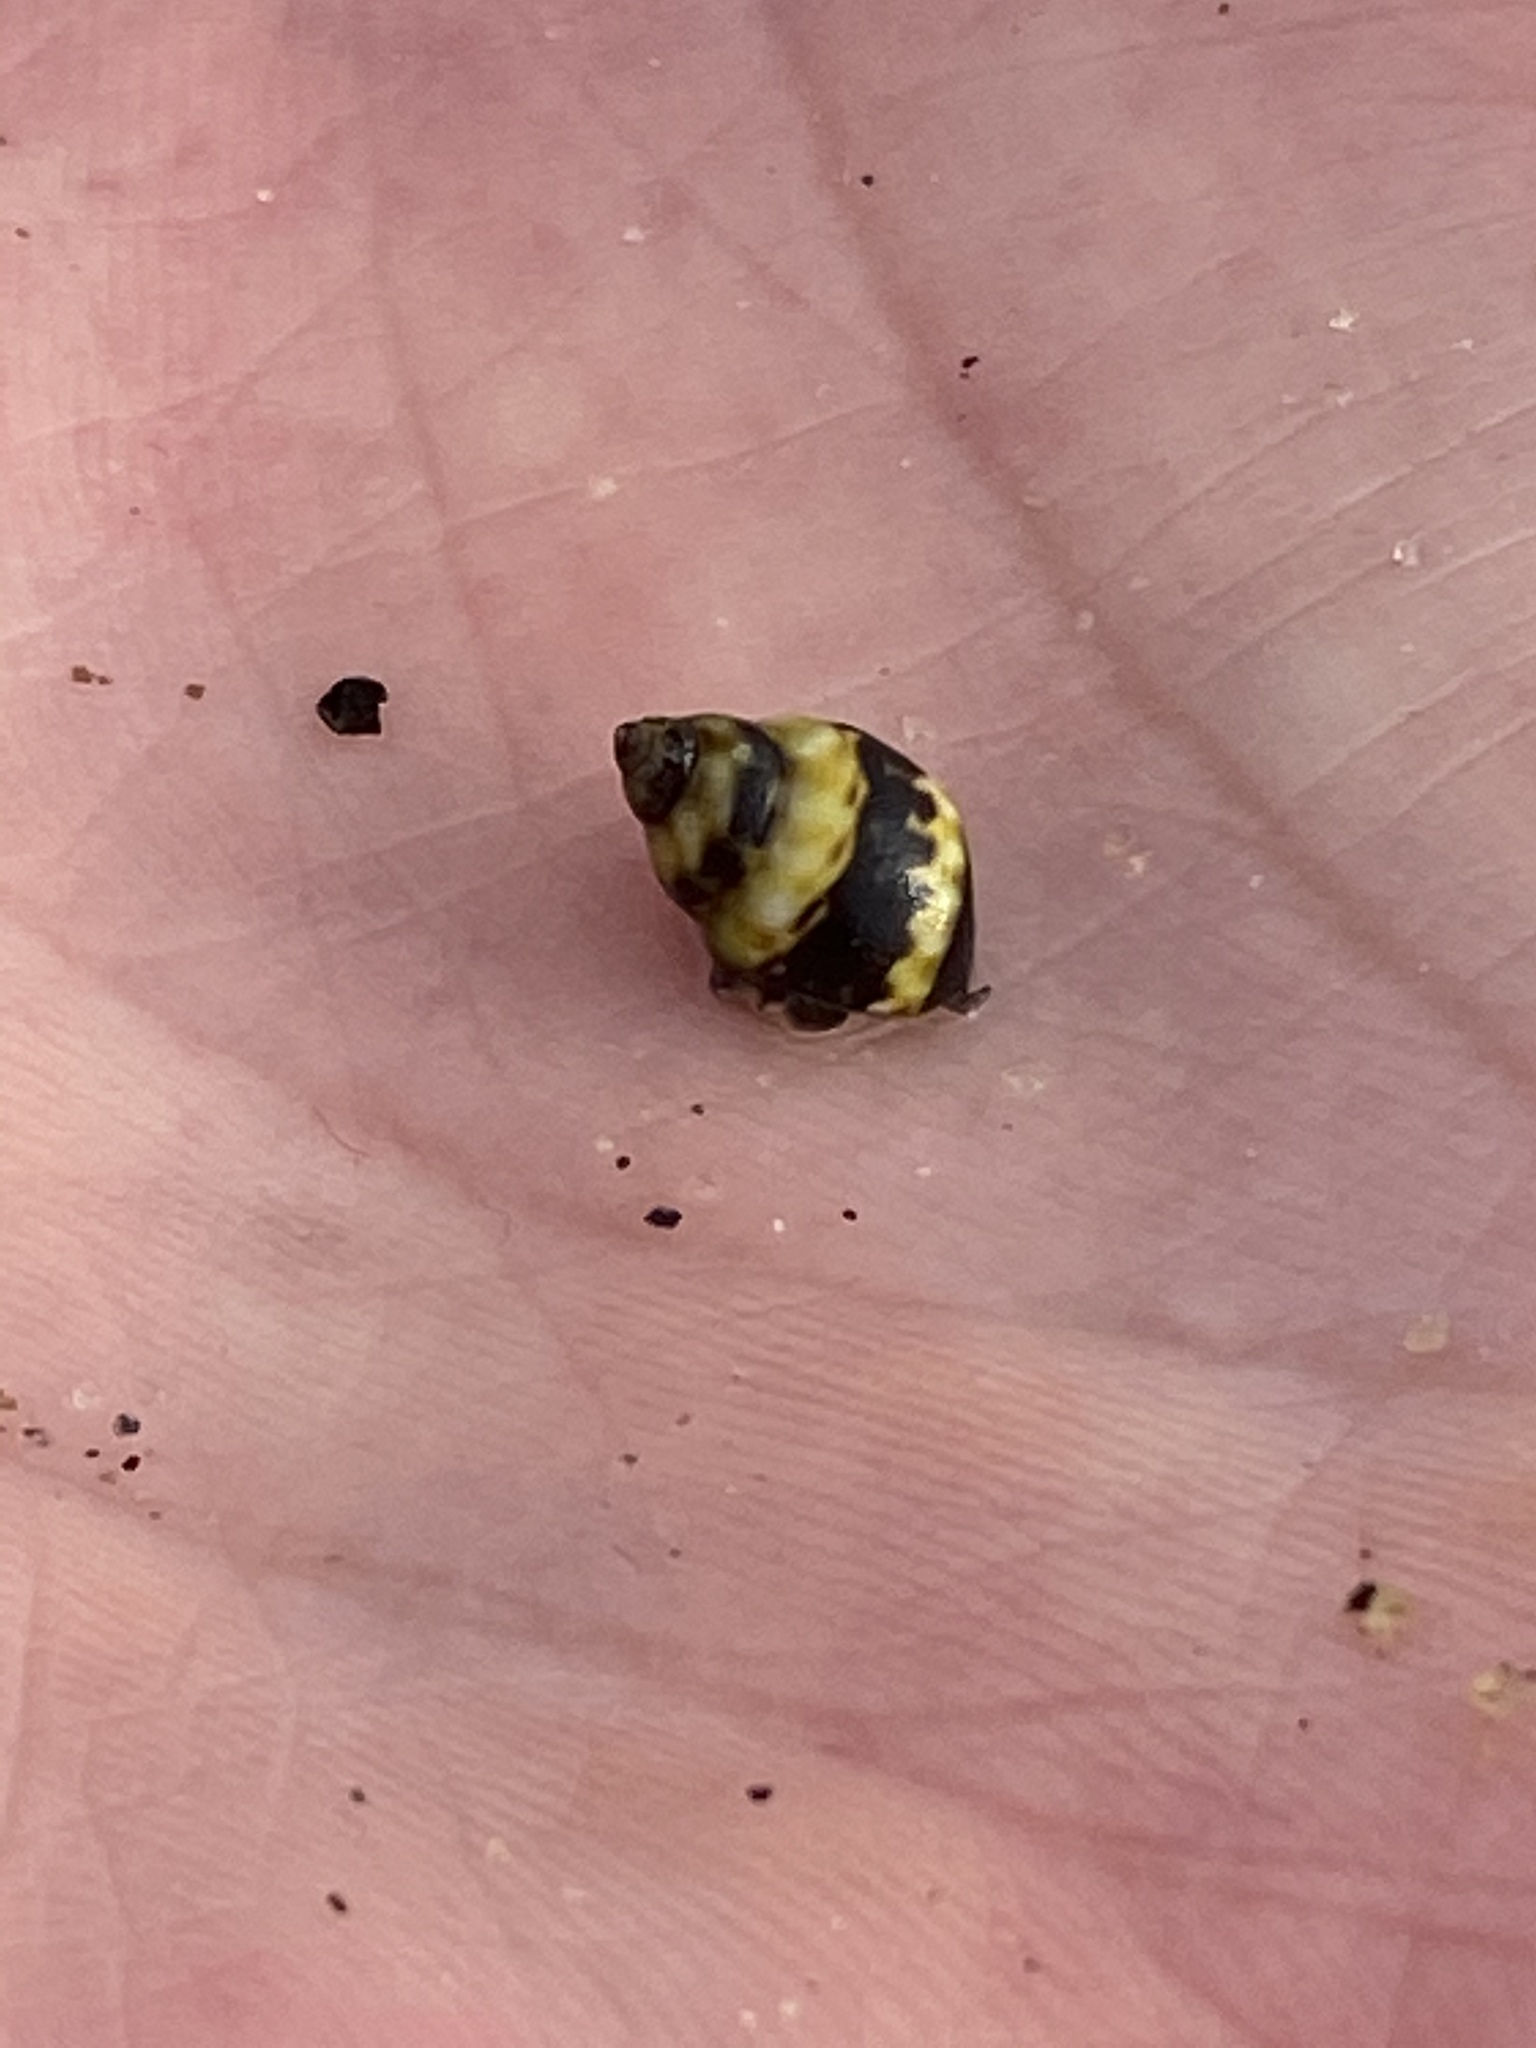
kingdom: Animalia
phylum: Mollusca
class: Gastropoda
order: Littorinimorpha
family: Littorinidae
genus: Littorina
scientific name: Littorina scutulata
